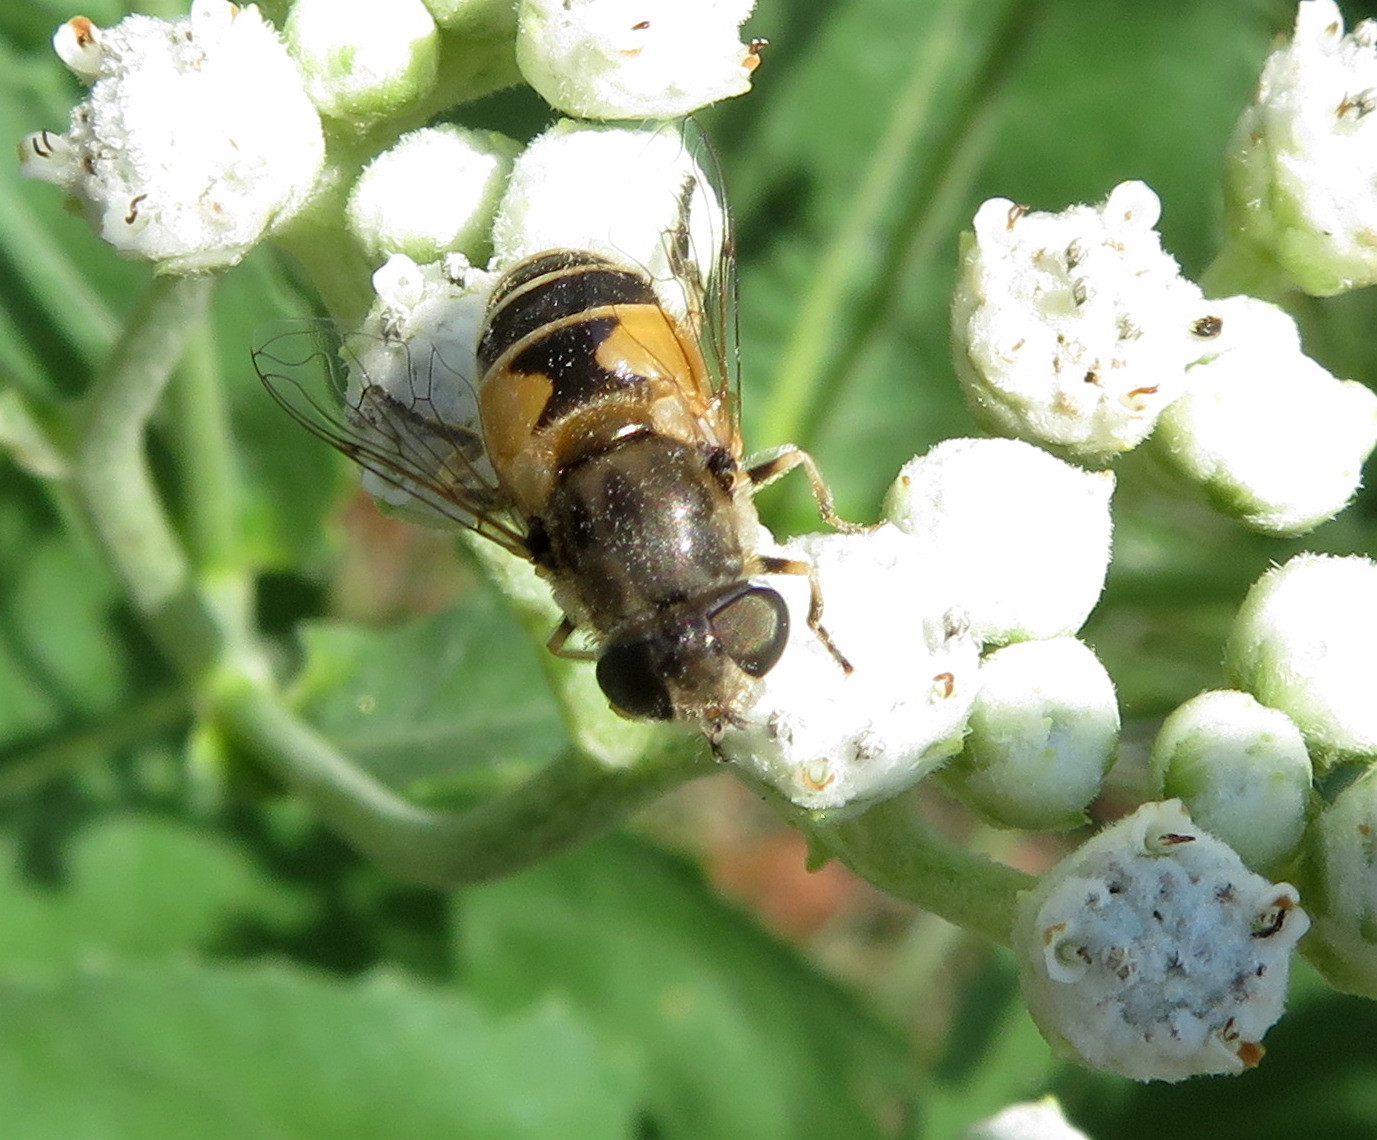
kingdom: Animalia
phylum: Arthropoda
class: Insecta
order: Diptera
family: Syrphidae
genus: Eristalis
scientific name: Eristalis arbustorum
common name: Hover fly
